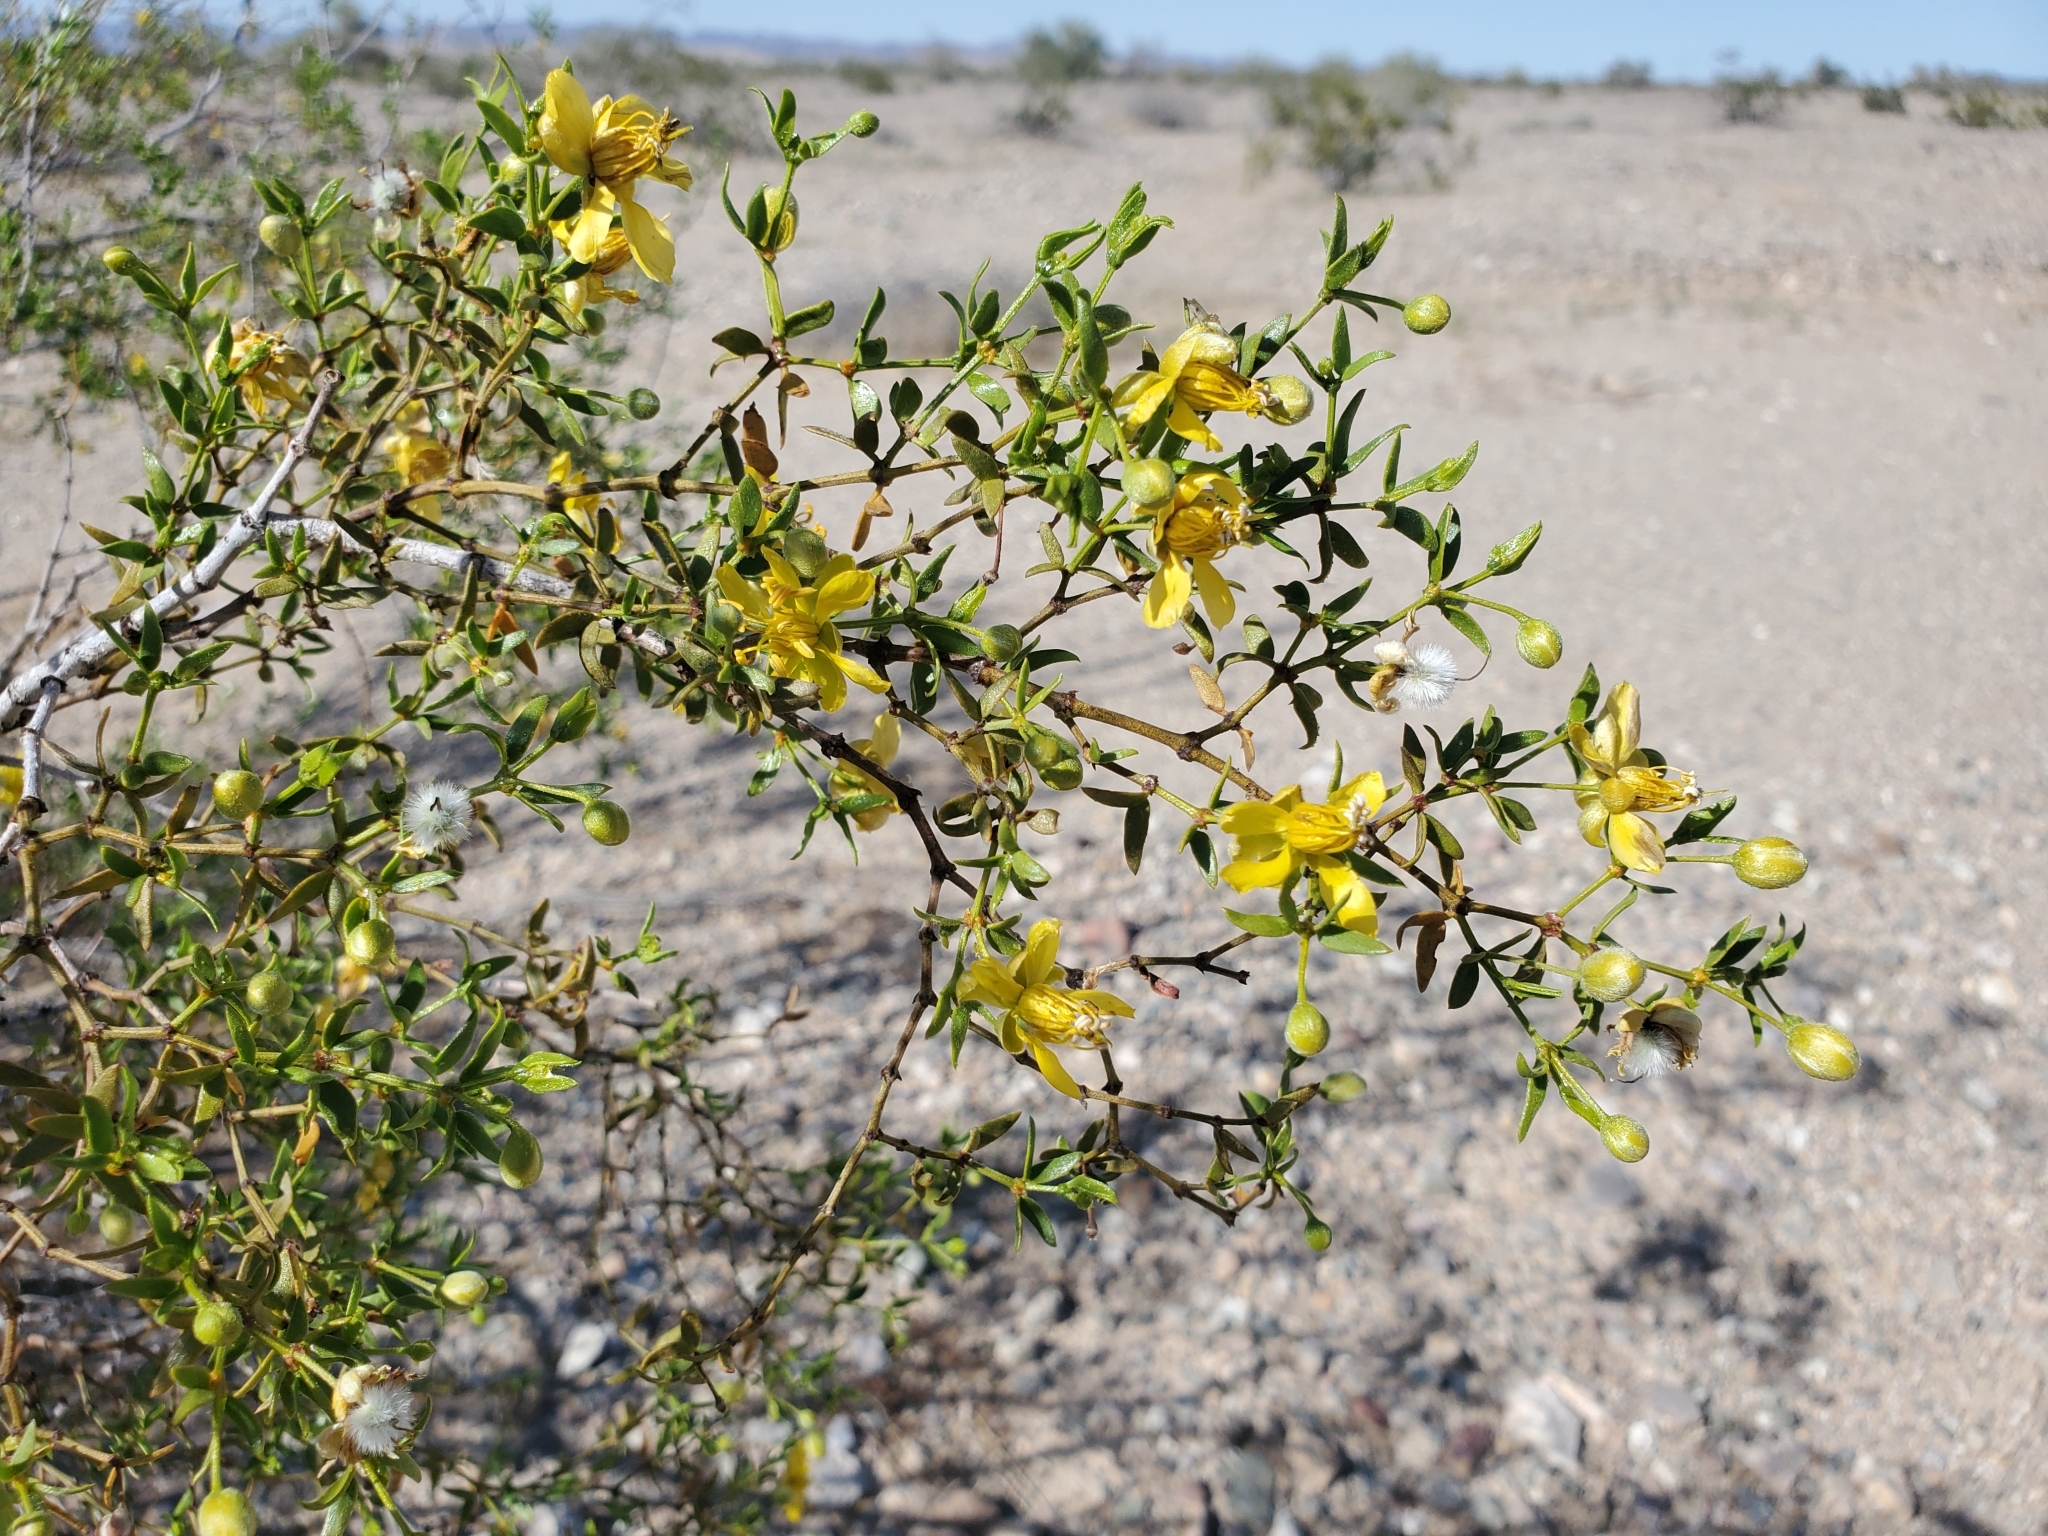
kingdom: Plantae
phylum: Tracheophyta
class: Magnoliopsida
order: Zygophyllales
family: Zygophyllaceae
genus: Larrea
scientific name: Larrea tridentata
